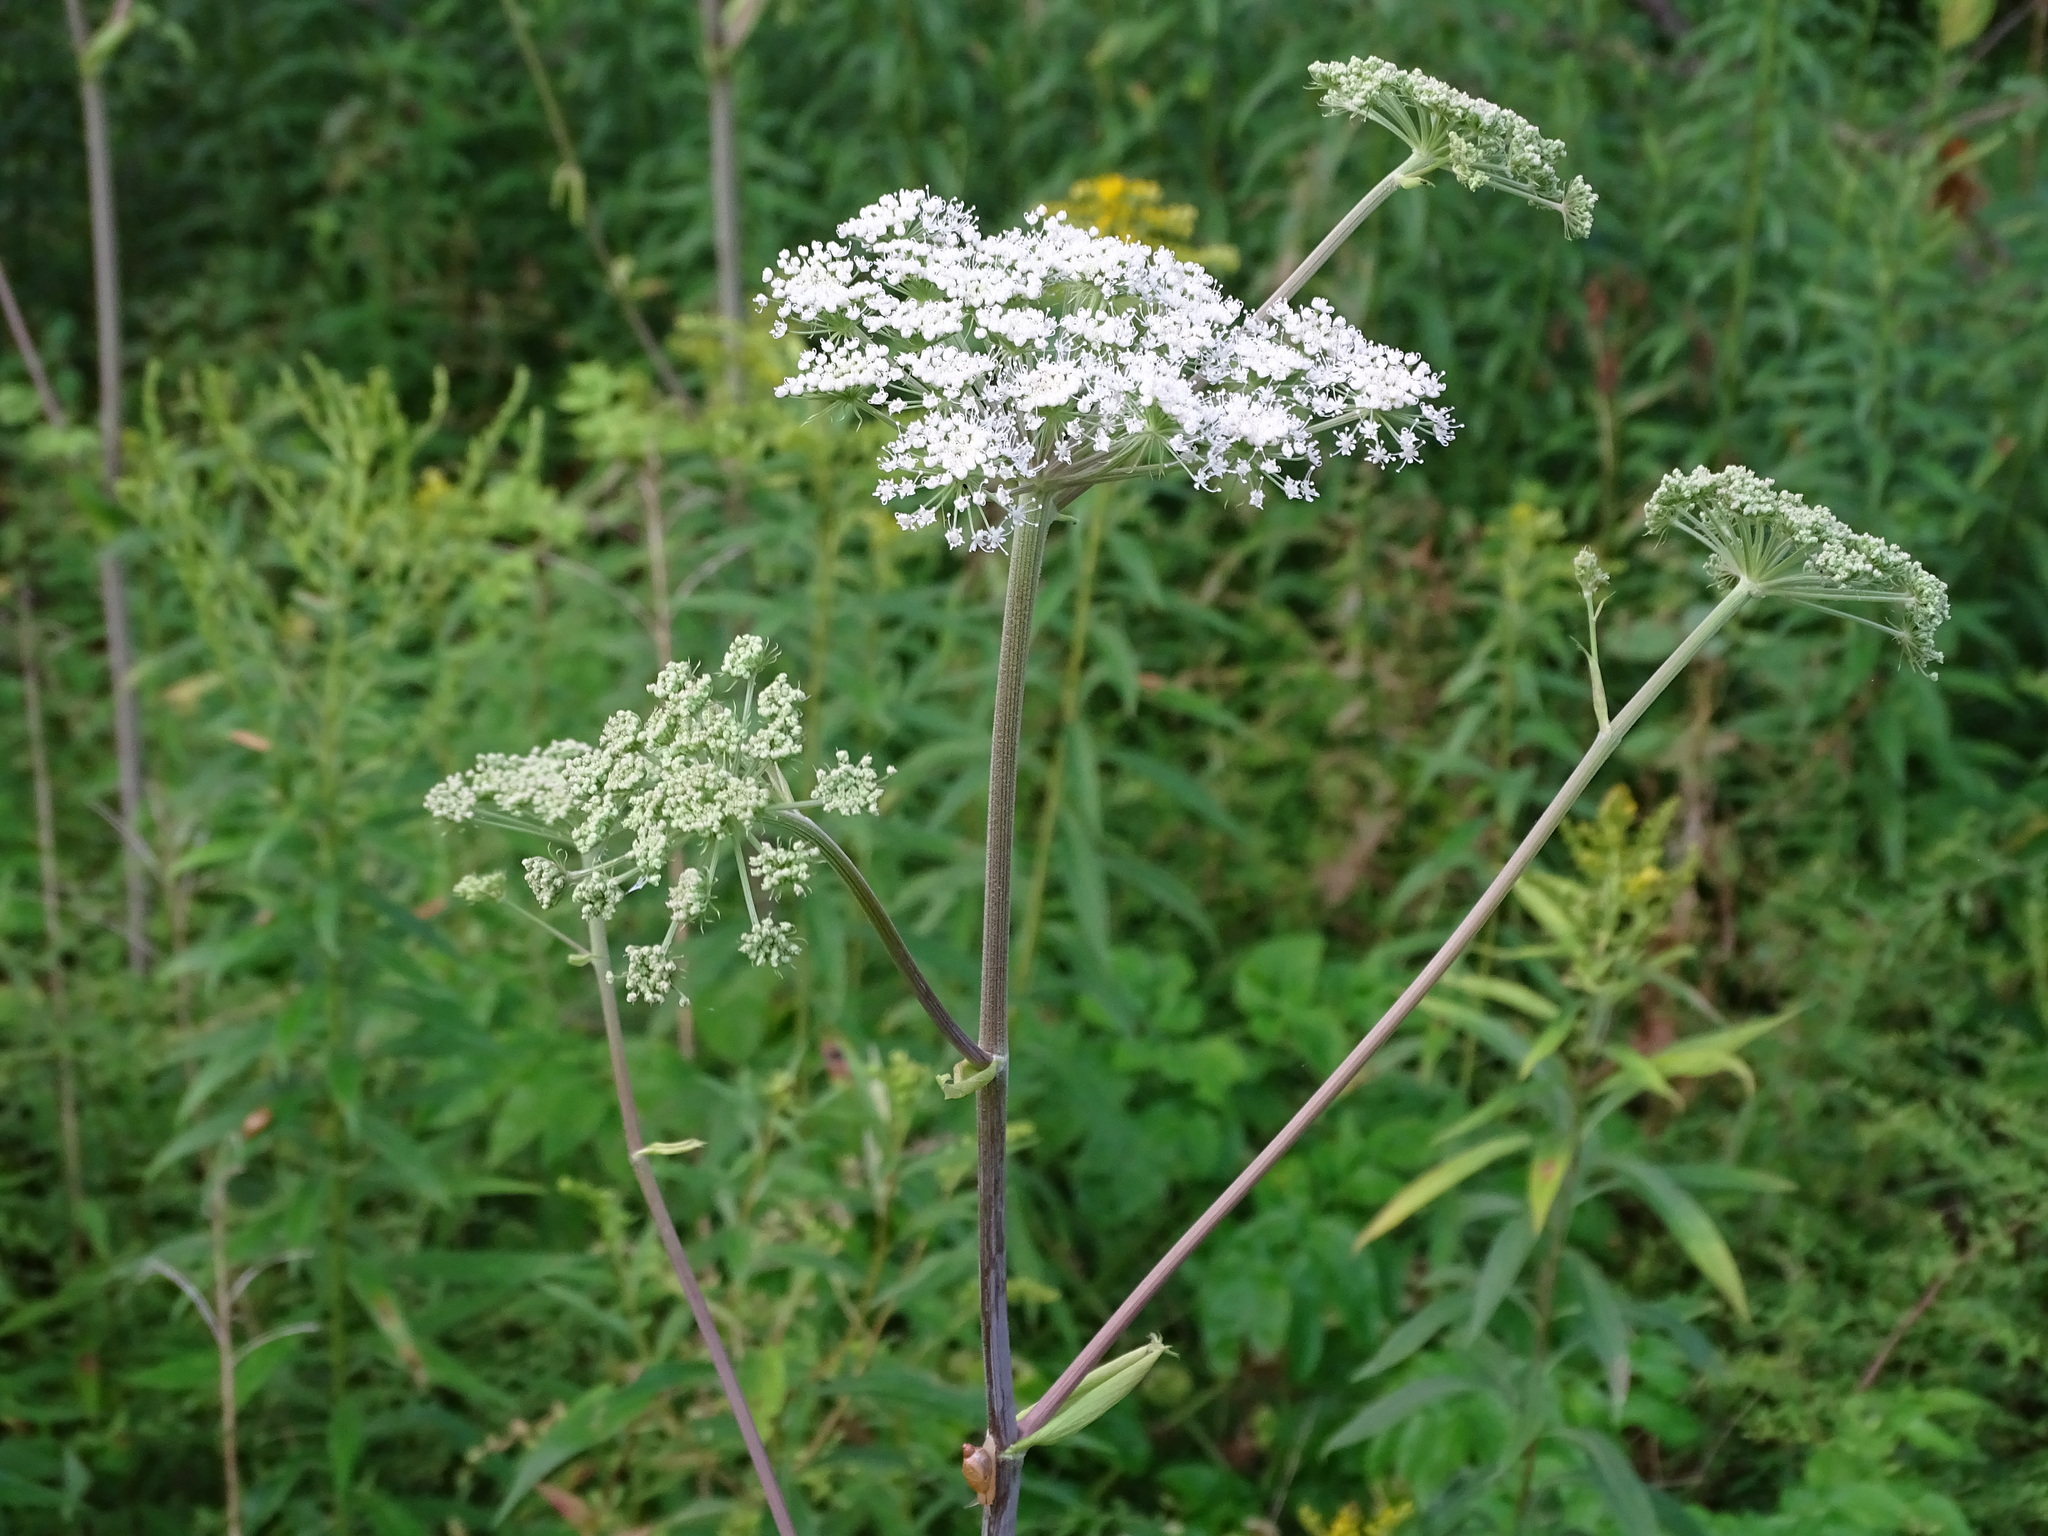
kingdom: Plantae
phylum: Tracheophyta
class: Magnoliopsida
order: Apiales
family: Apiaceae
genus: Angelica
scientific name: Angelica sylvestris
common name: Wild angelica
